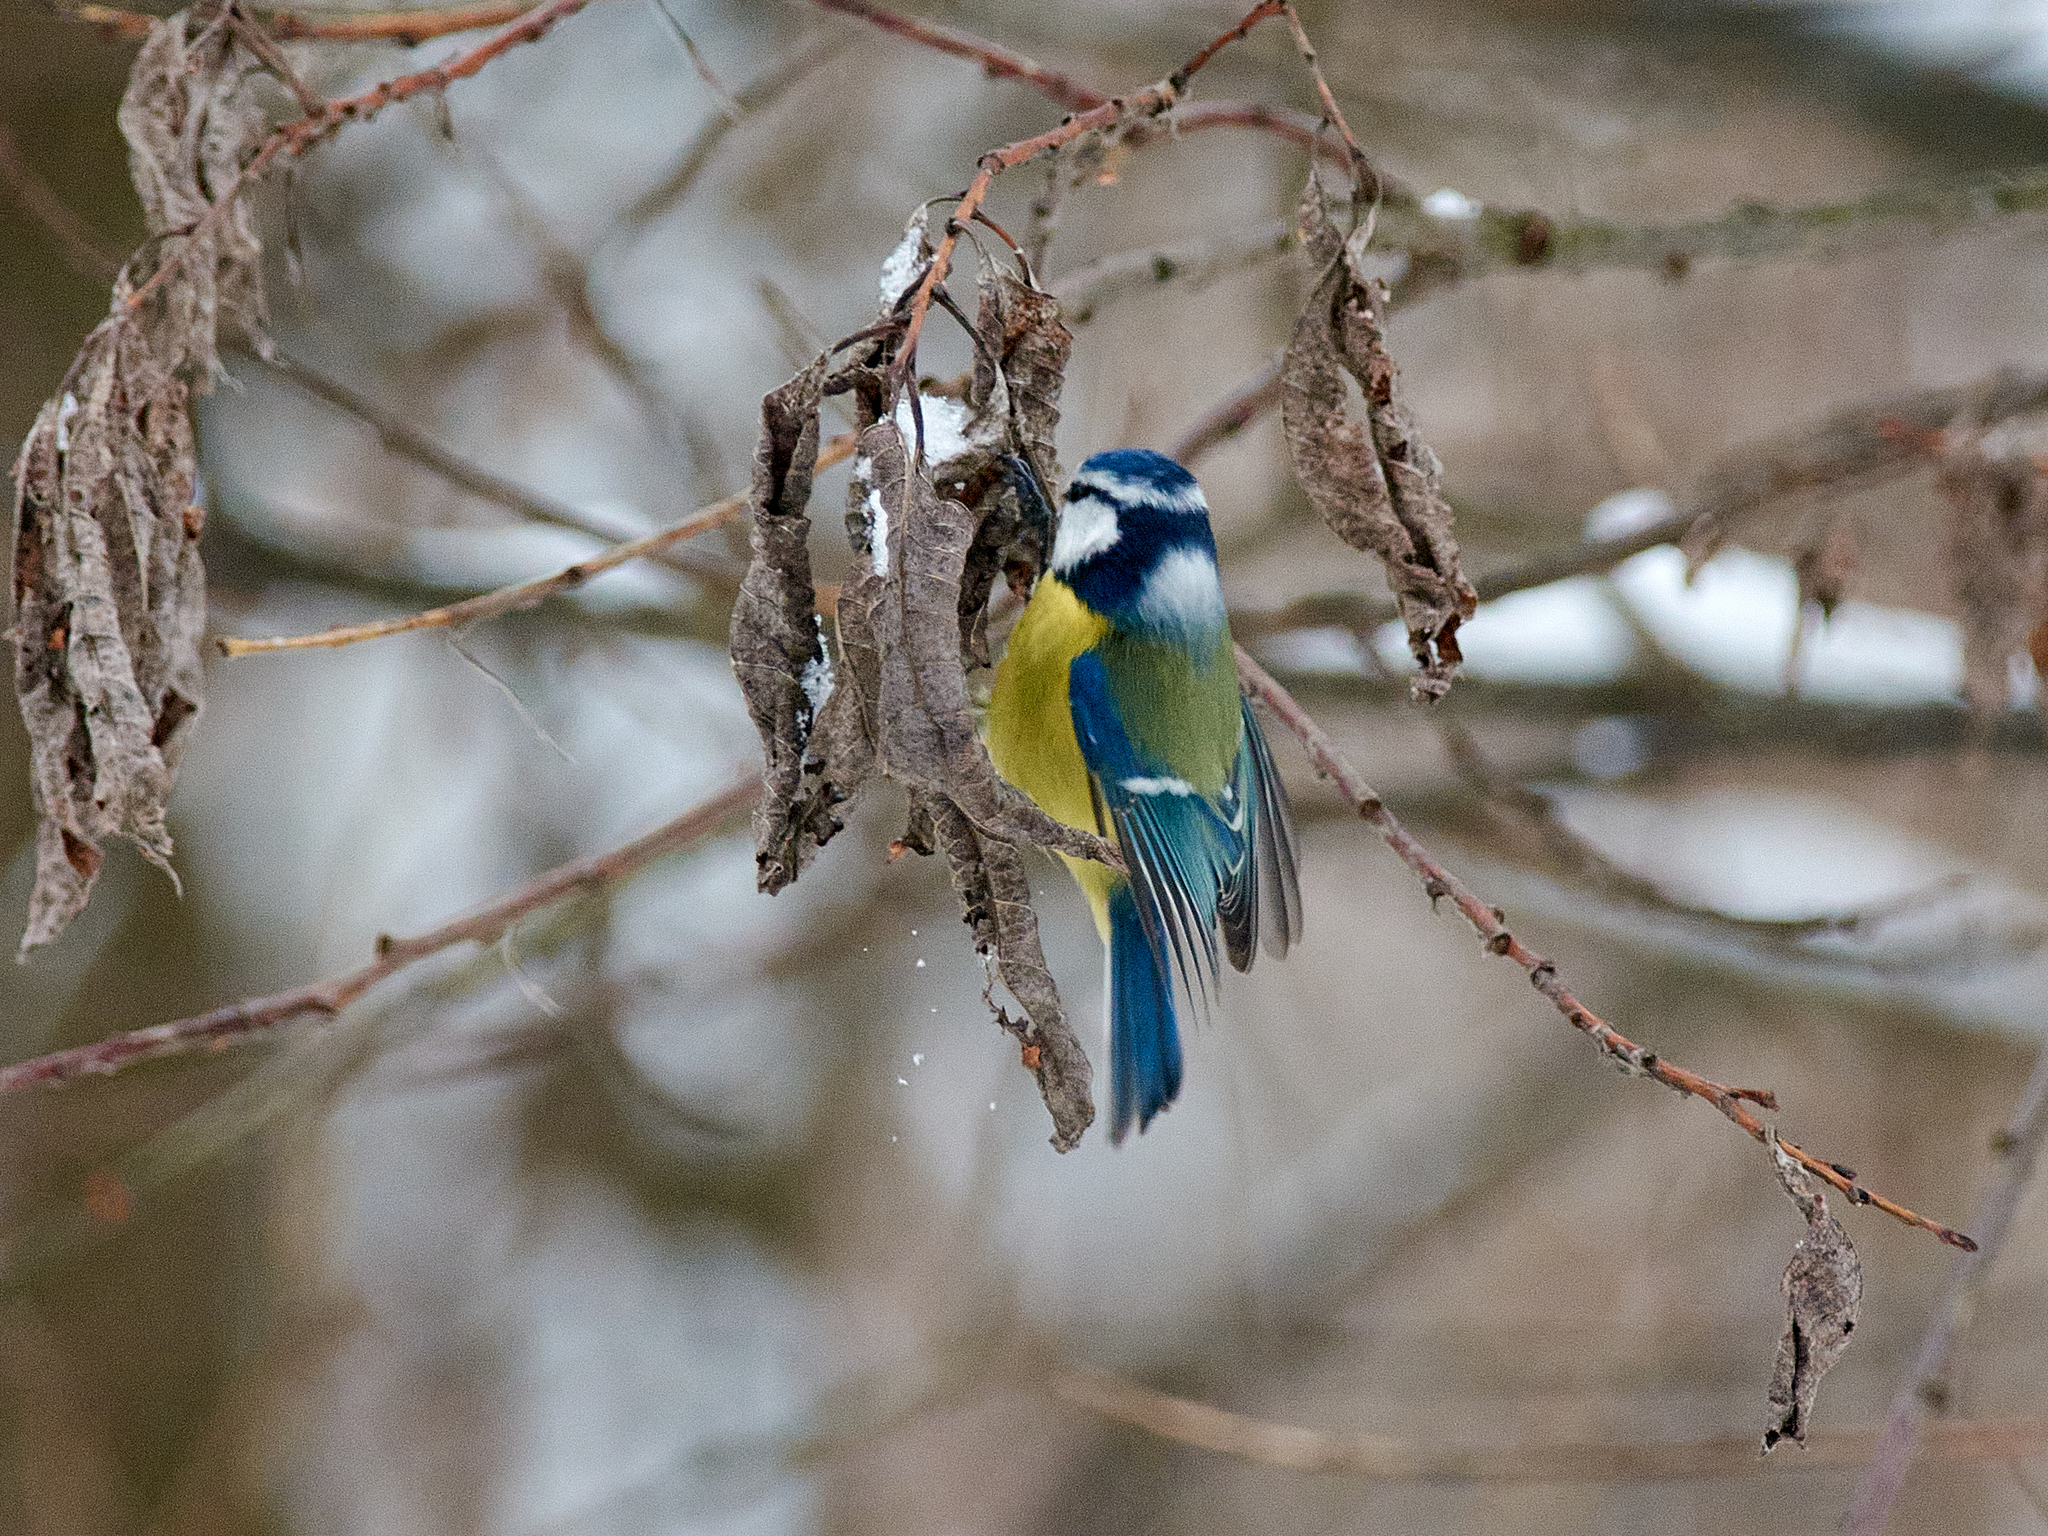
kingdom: Animalia
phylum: Chordata
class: Aves
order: Passeriformes
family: Paridae
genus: Cyanistes
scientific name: Cyanistes caeruleus
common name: Eurasian blue tit
